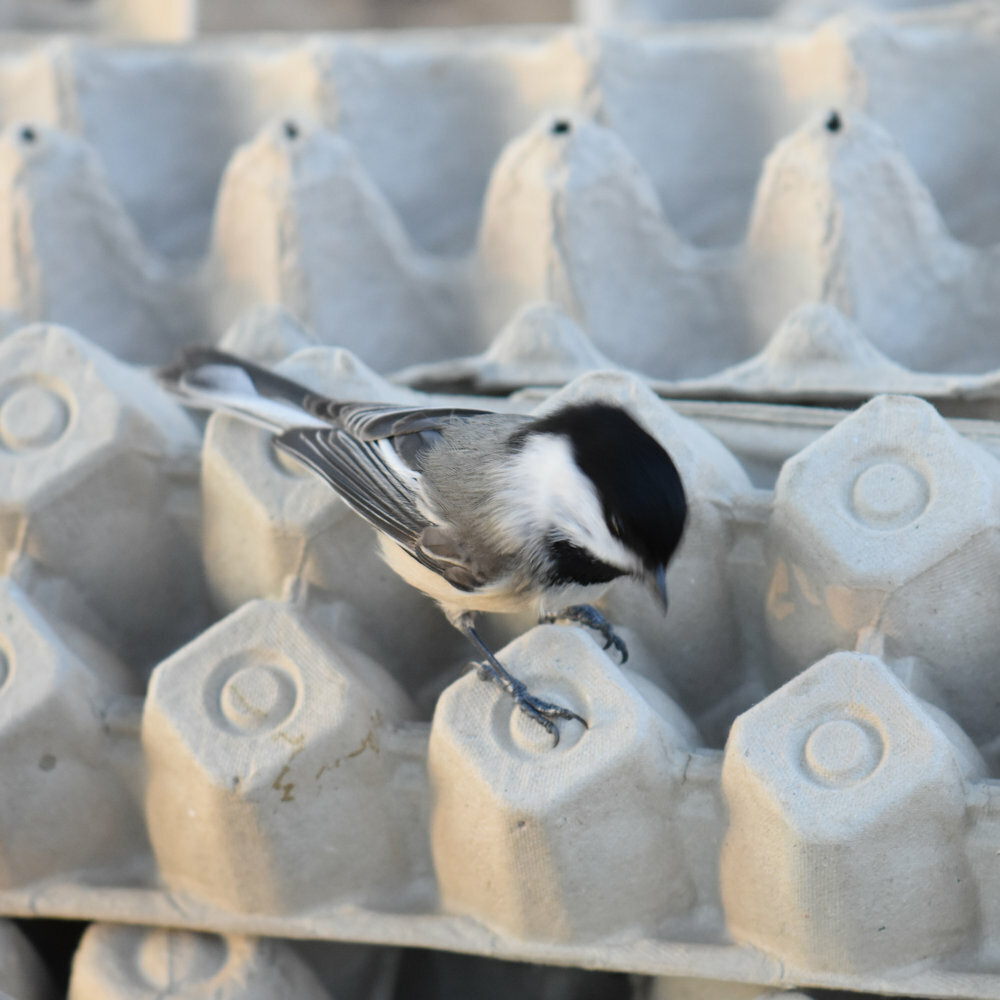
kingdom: Animalia
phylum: Chordata
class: Aves
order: Passeriformes
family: Paridae
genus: Poecile
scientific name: Poecile atricapillus
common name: Black-capped chickadee
